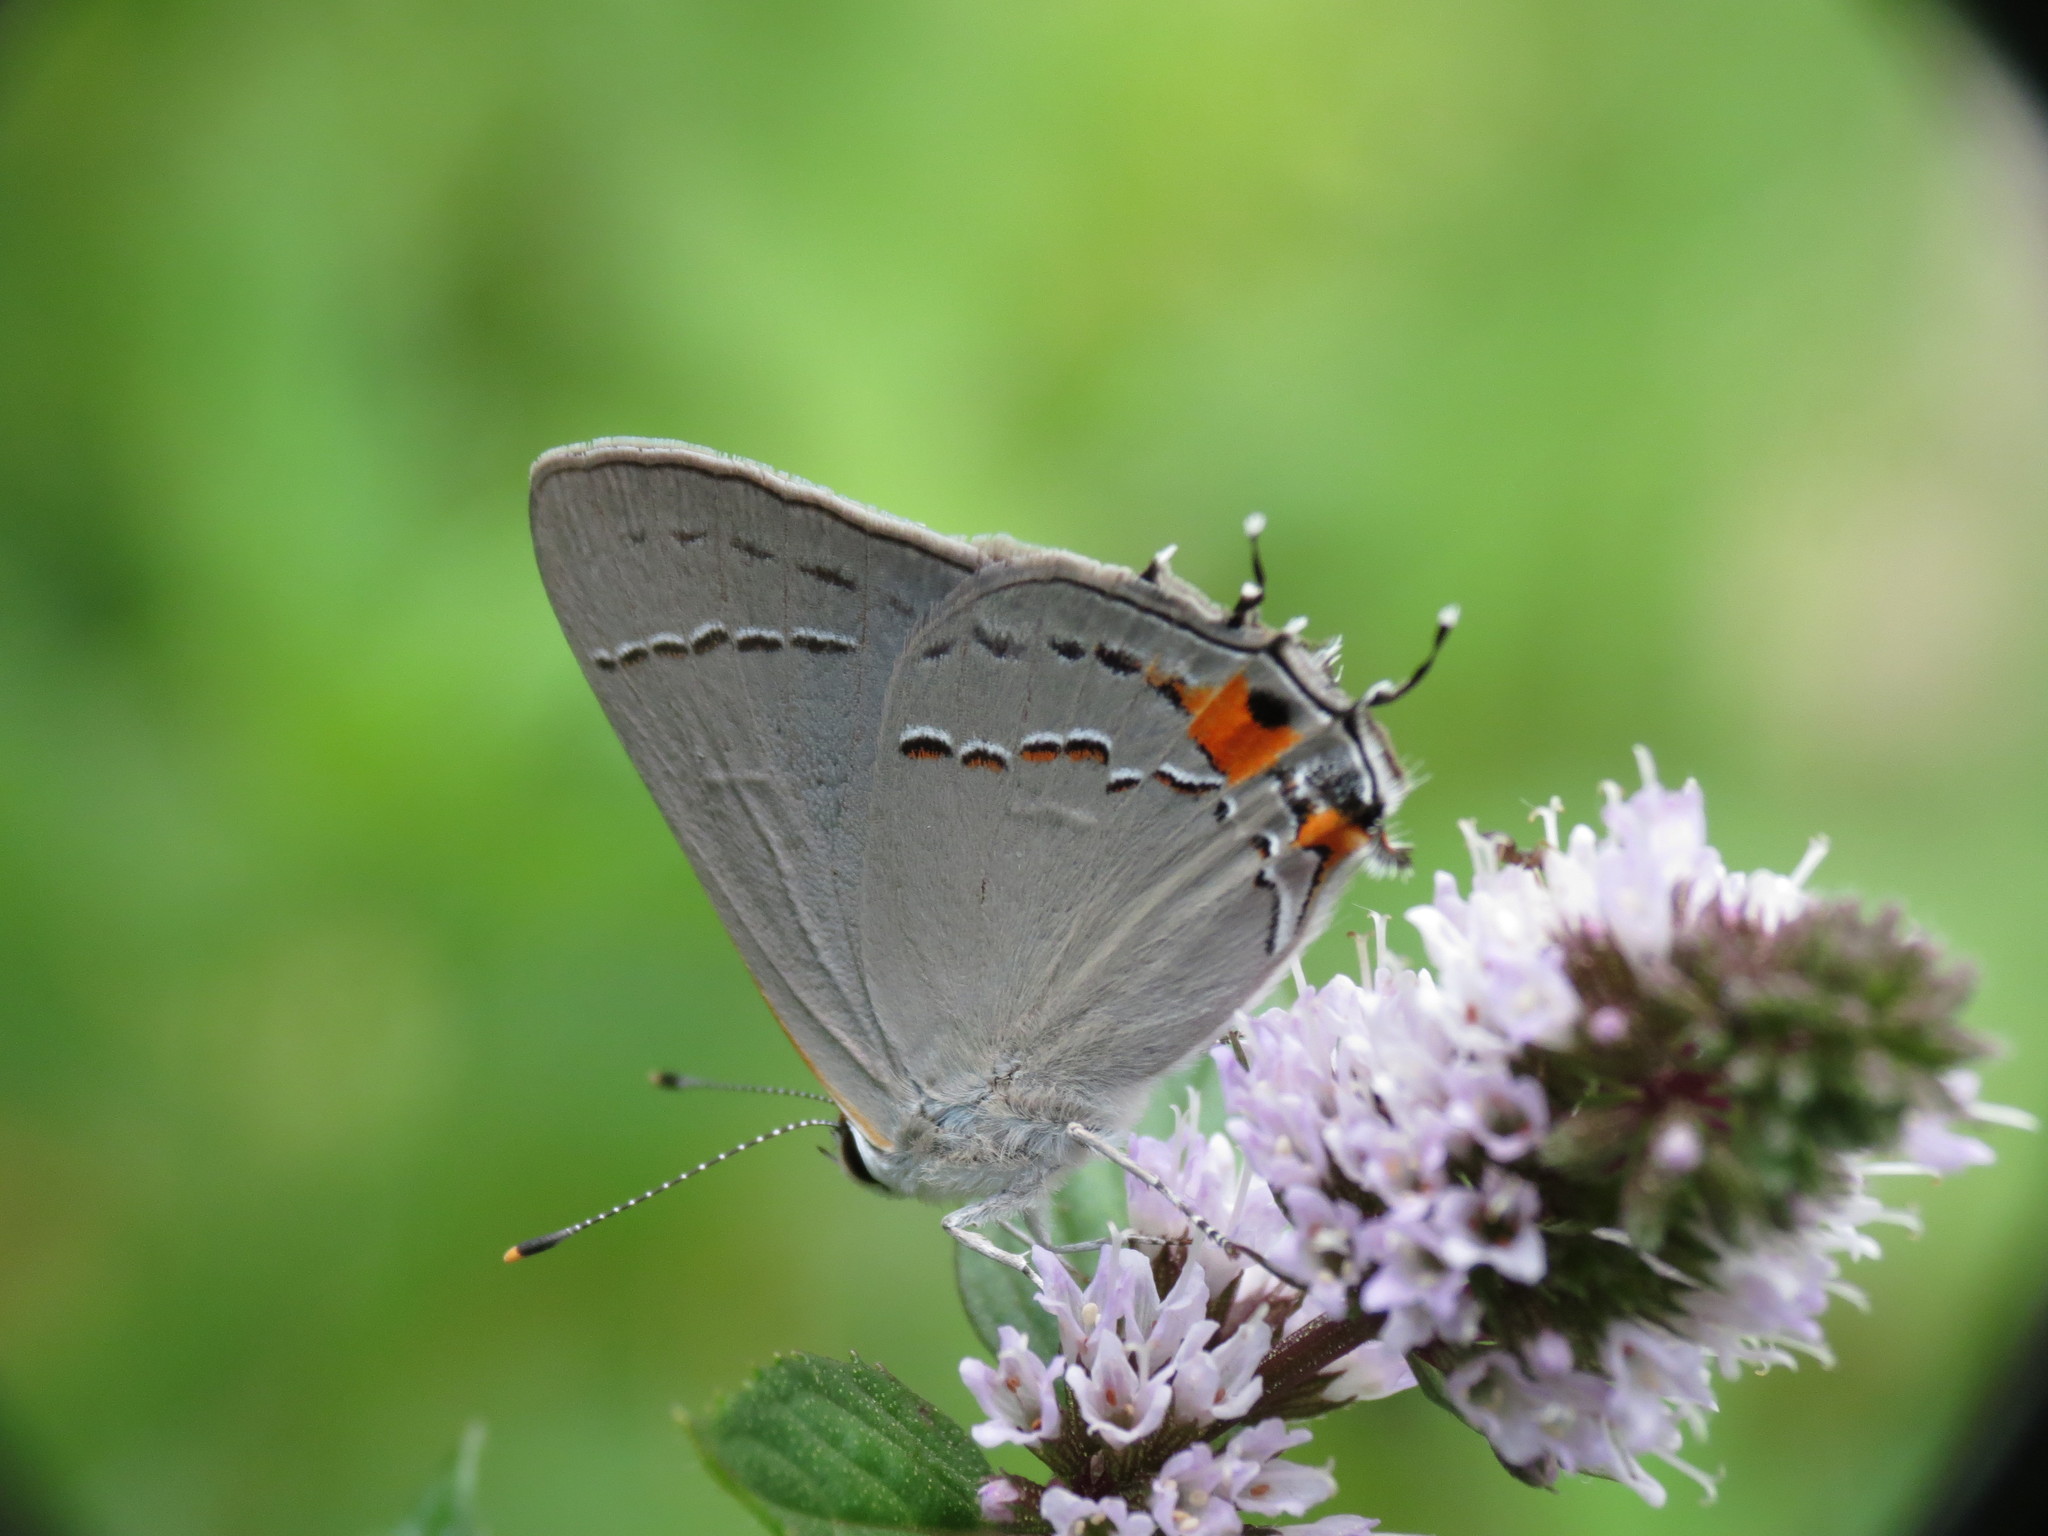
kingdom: Animalia
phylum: Arthropoda
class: Insecta
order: Lepidoptera
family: Lycaenidae
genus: Strymon
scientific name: Strymon melinus
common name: Gray hairstreak
